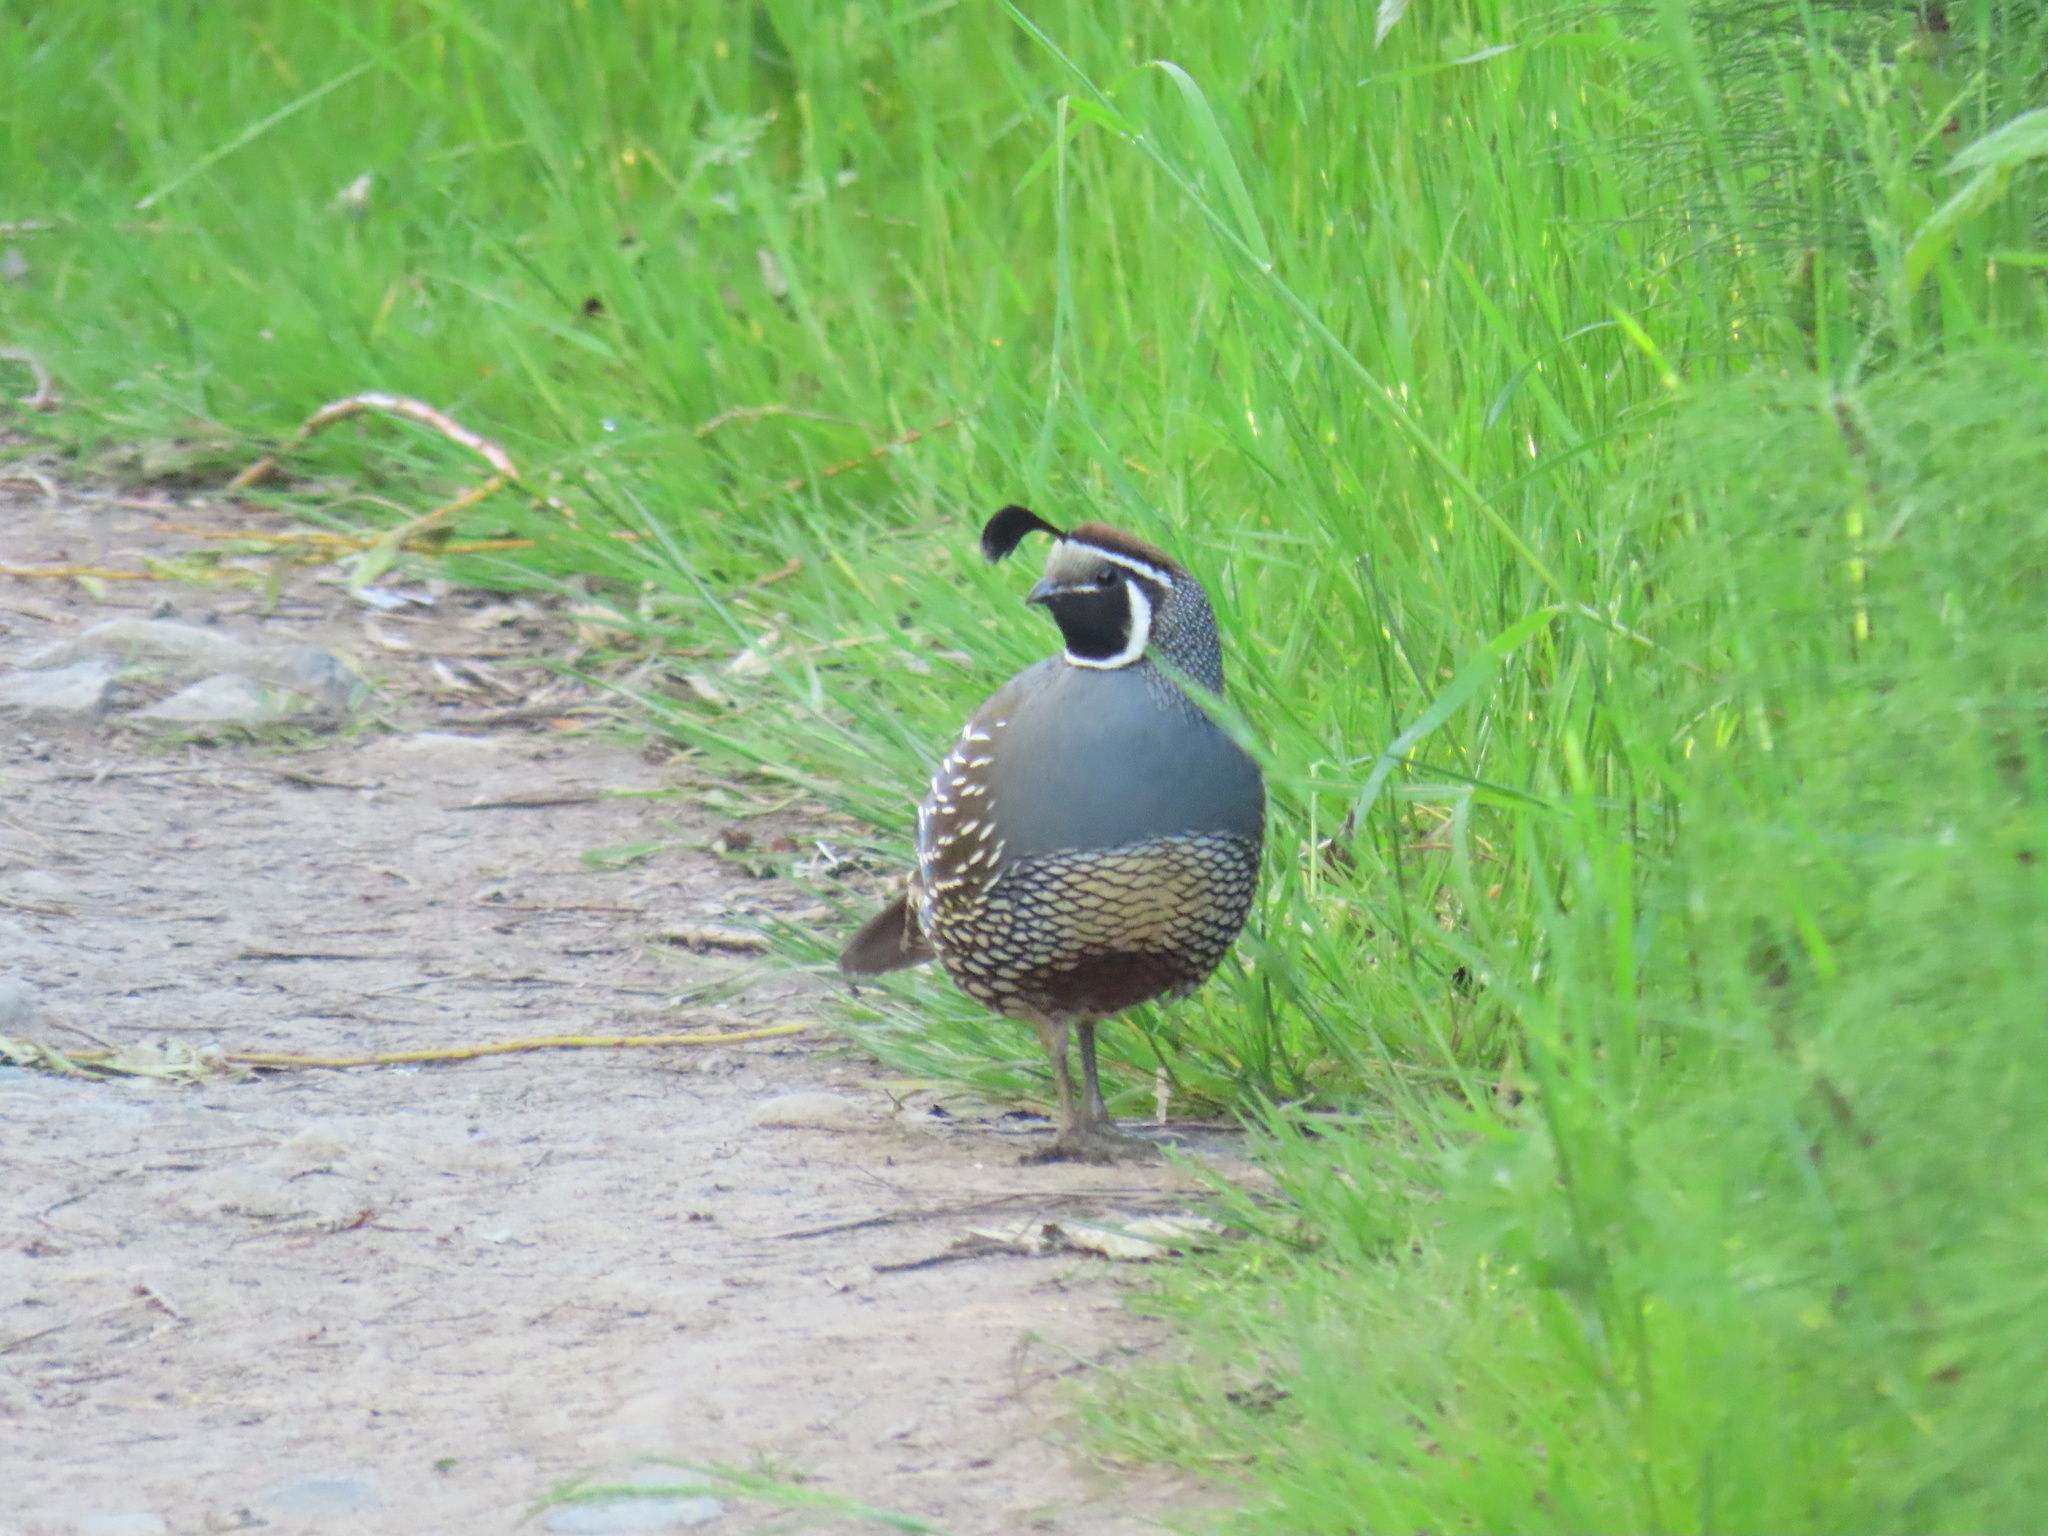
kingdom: Animalia
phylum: Chordata
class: Aves
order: Galliformes
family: Odontophoridae
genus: Callipepla
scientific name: Callipepla californica
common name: California quail
